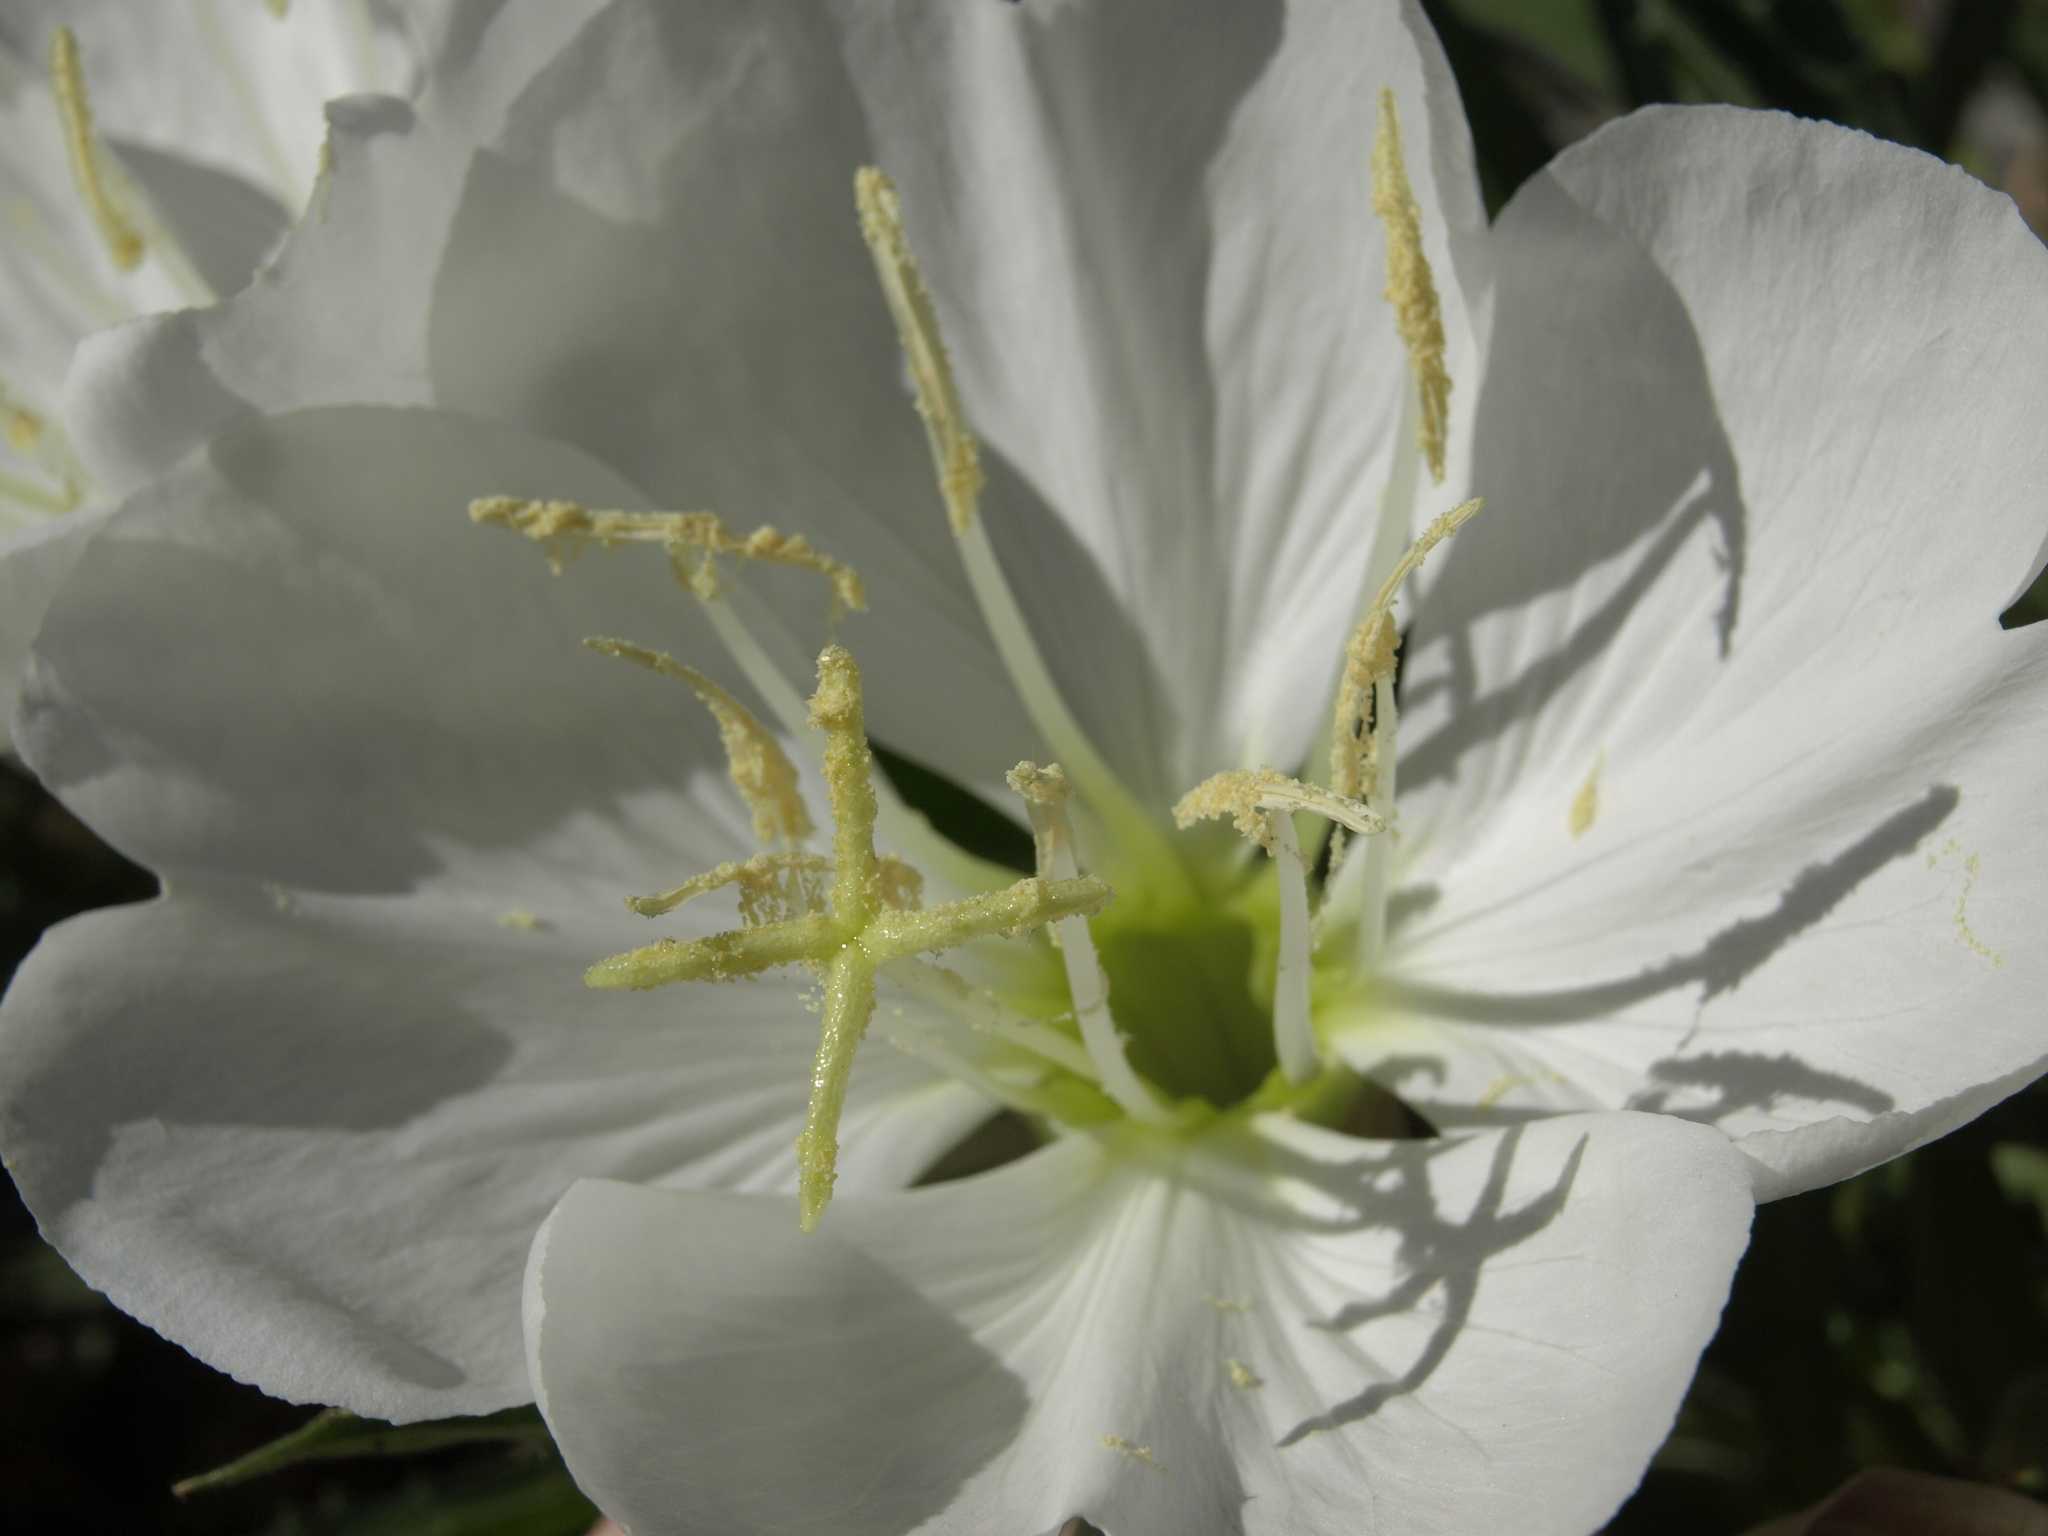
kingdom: Plantae
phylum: Tracheophyta
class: Magnoliopsida
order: Myrtales
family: Onagraceae
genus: Oenothera
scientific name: Oenothera cespitosa
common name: Tufted evening-primrose
